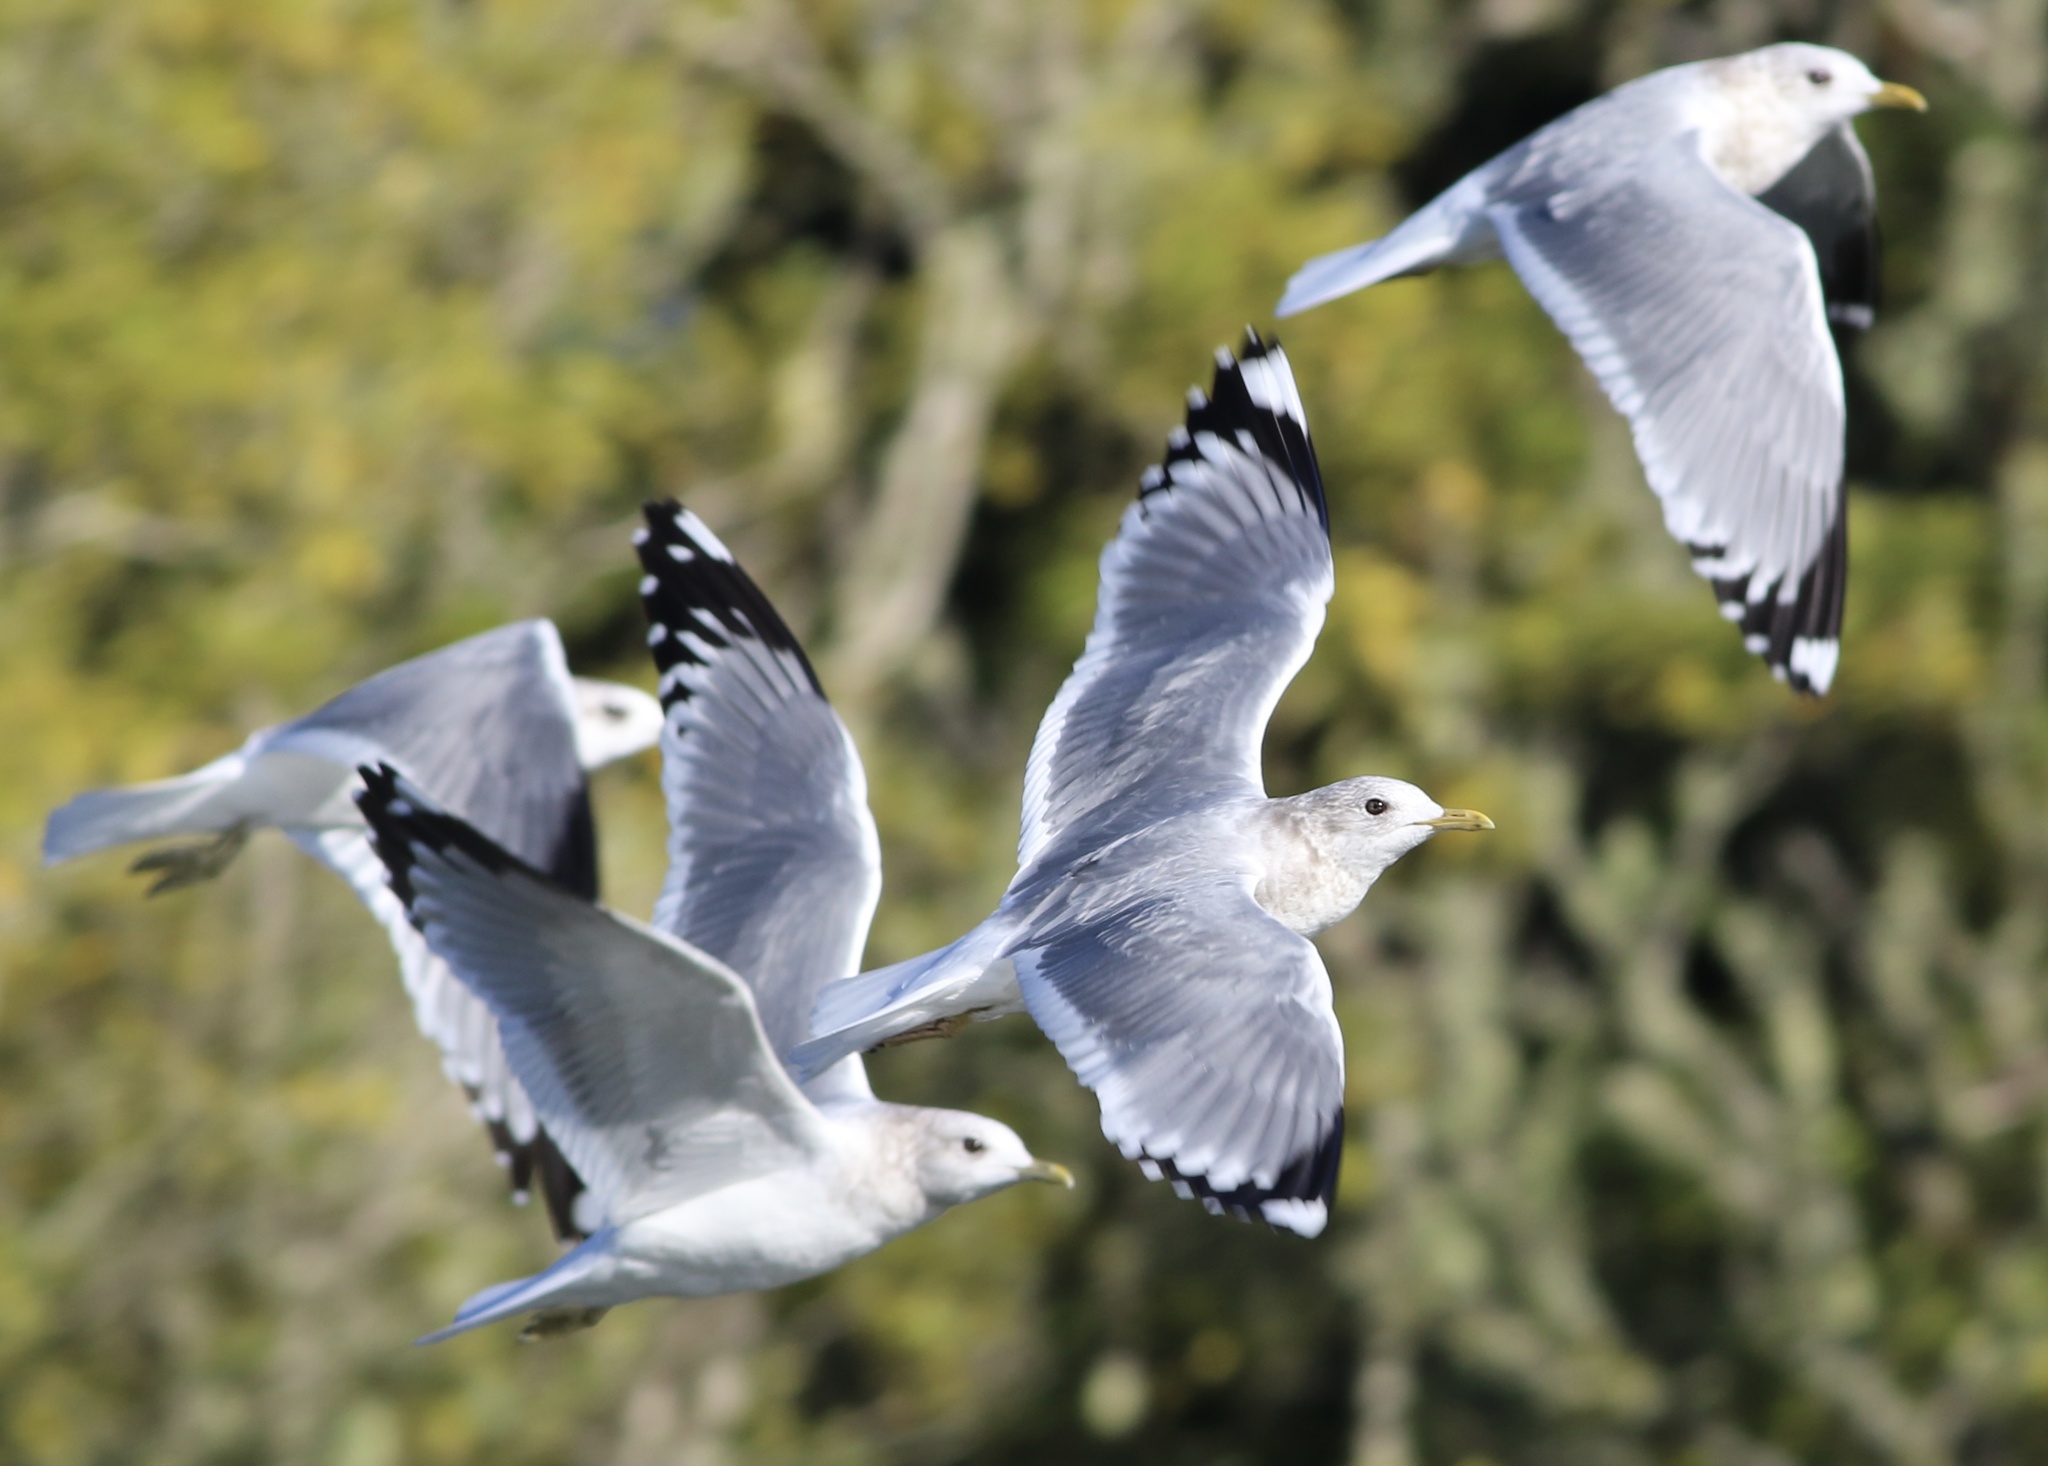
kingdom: Animalia
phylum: Chordata
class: Aves
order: Charadriiformes
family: Laridae
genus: Larus
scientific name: Larus brachyrhynchus
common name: Short-billed gull
